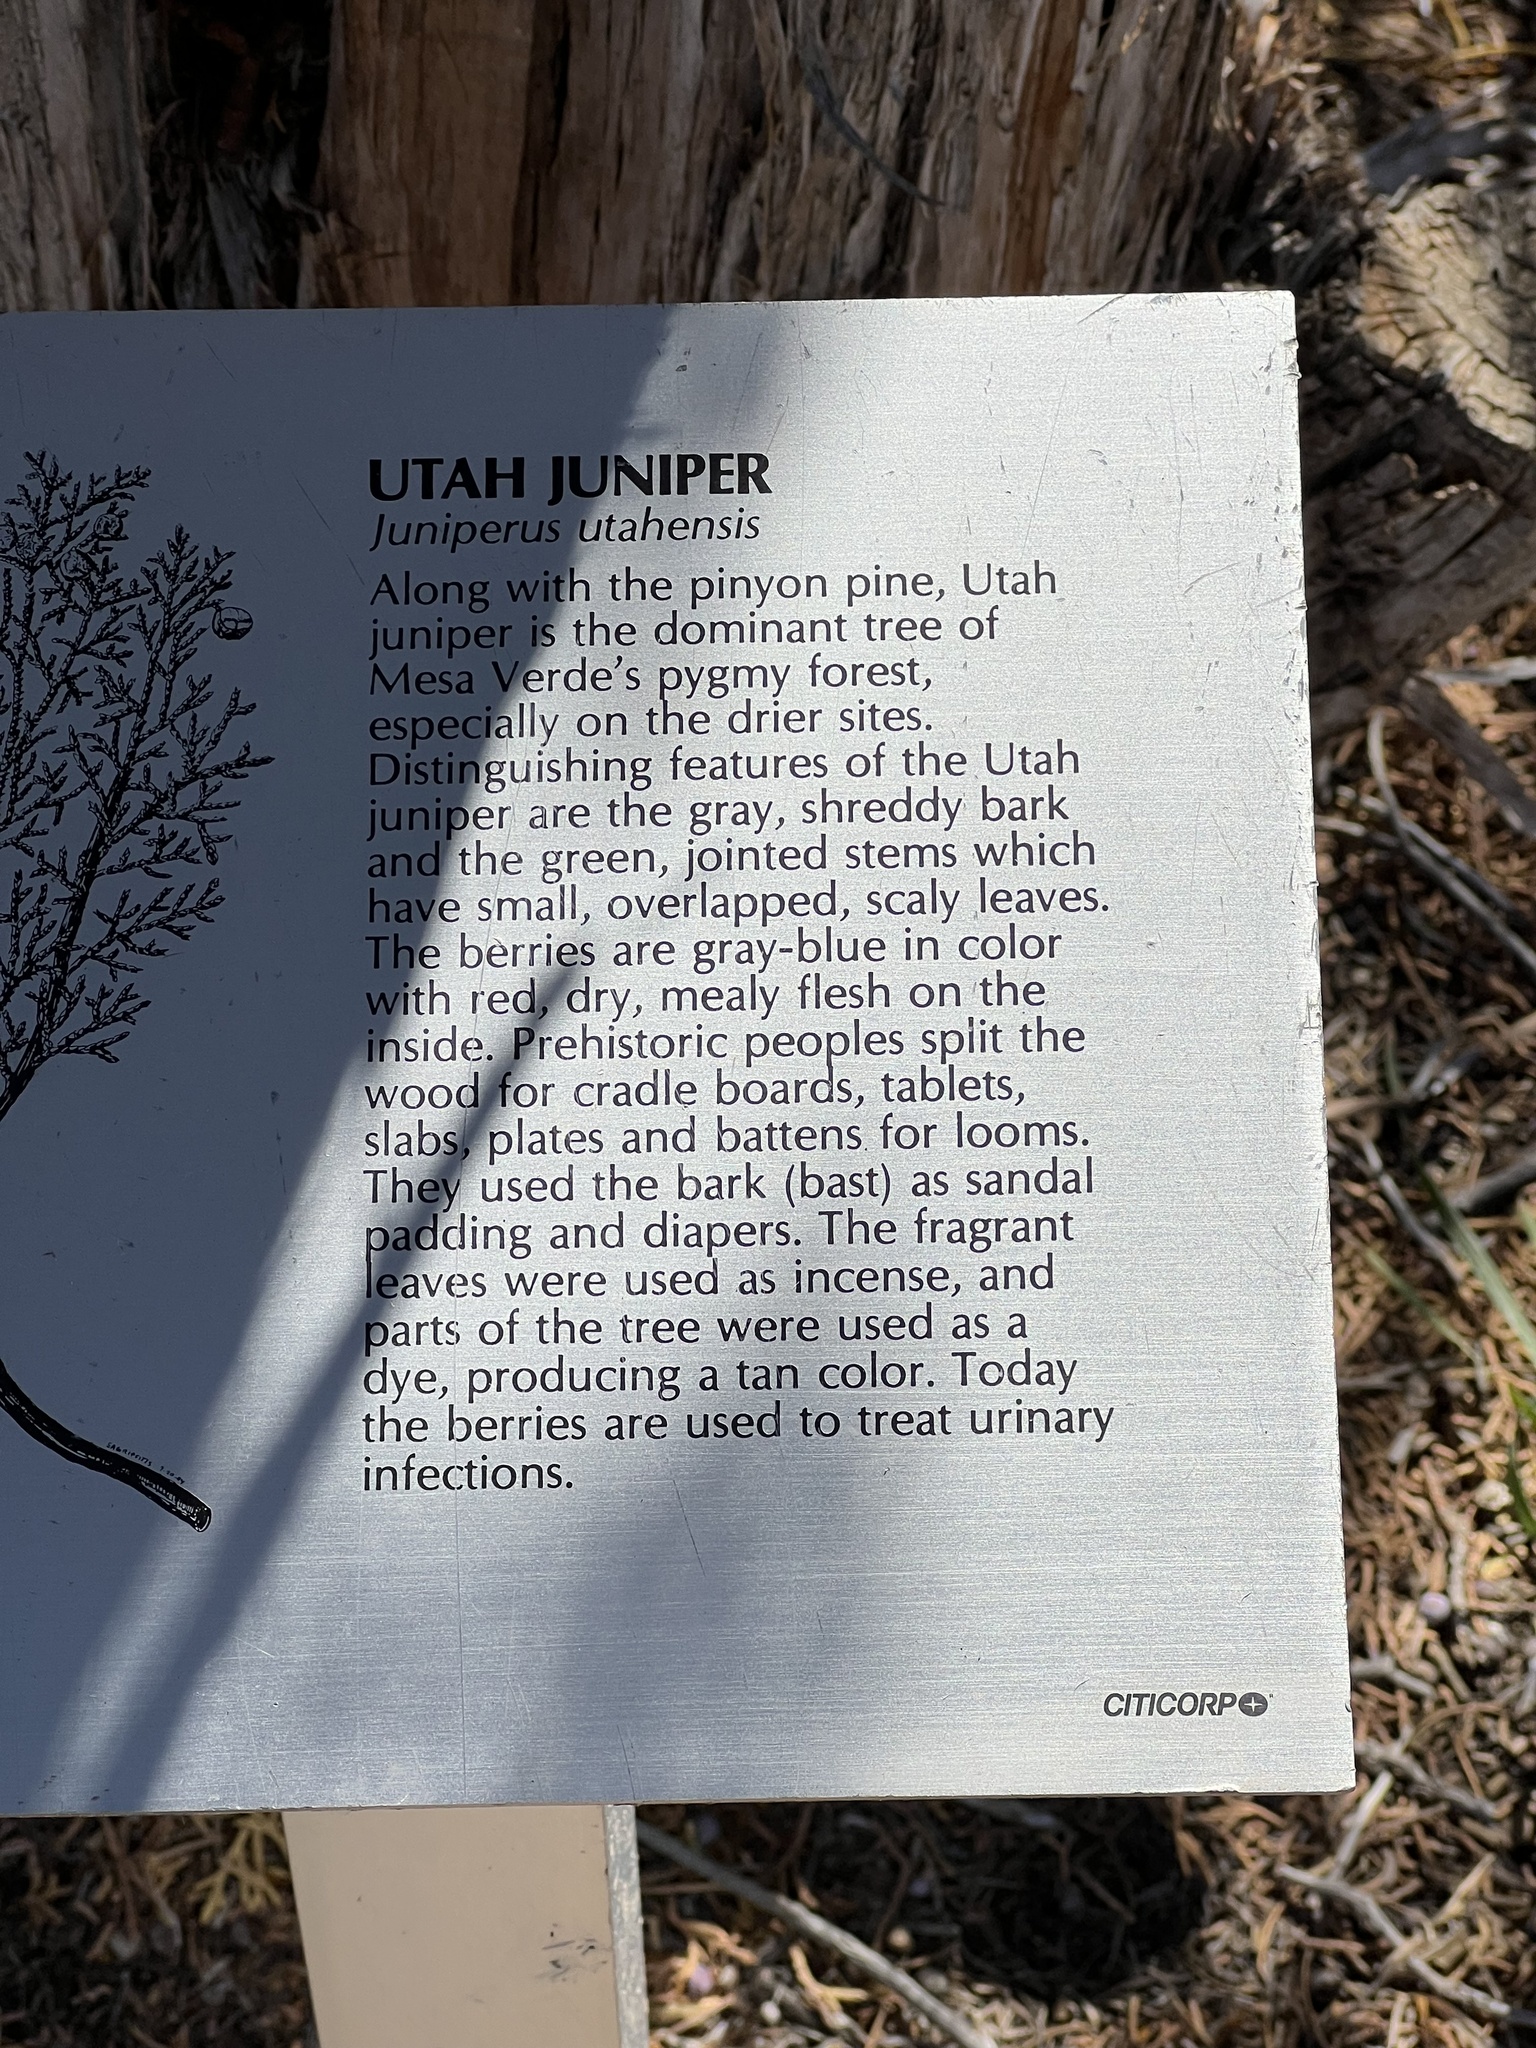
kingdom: Plantae
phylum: Tracheophyta
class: Pinopsida
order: Pinales
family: Cupressaceae
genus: Juniperus
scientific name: Juniperus osteosperma
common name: Utah juniper
